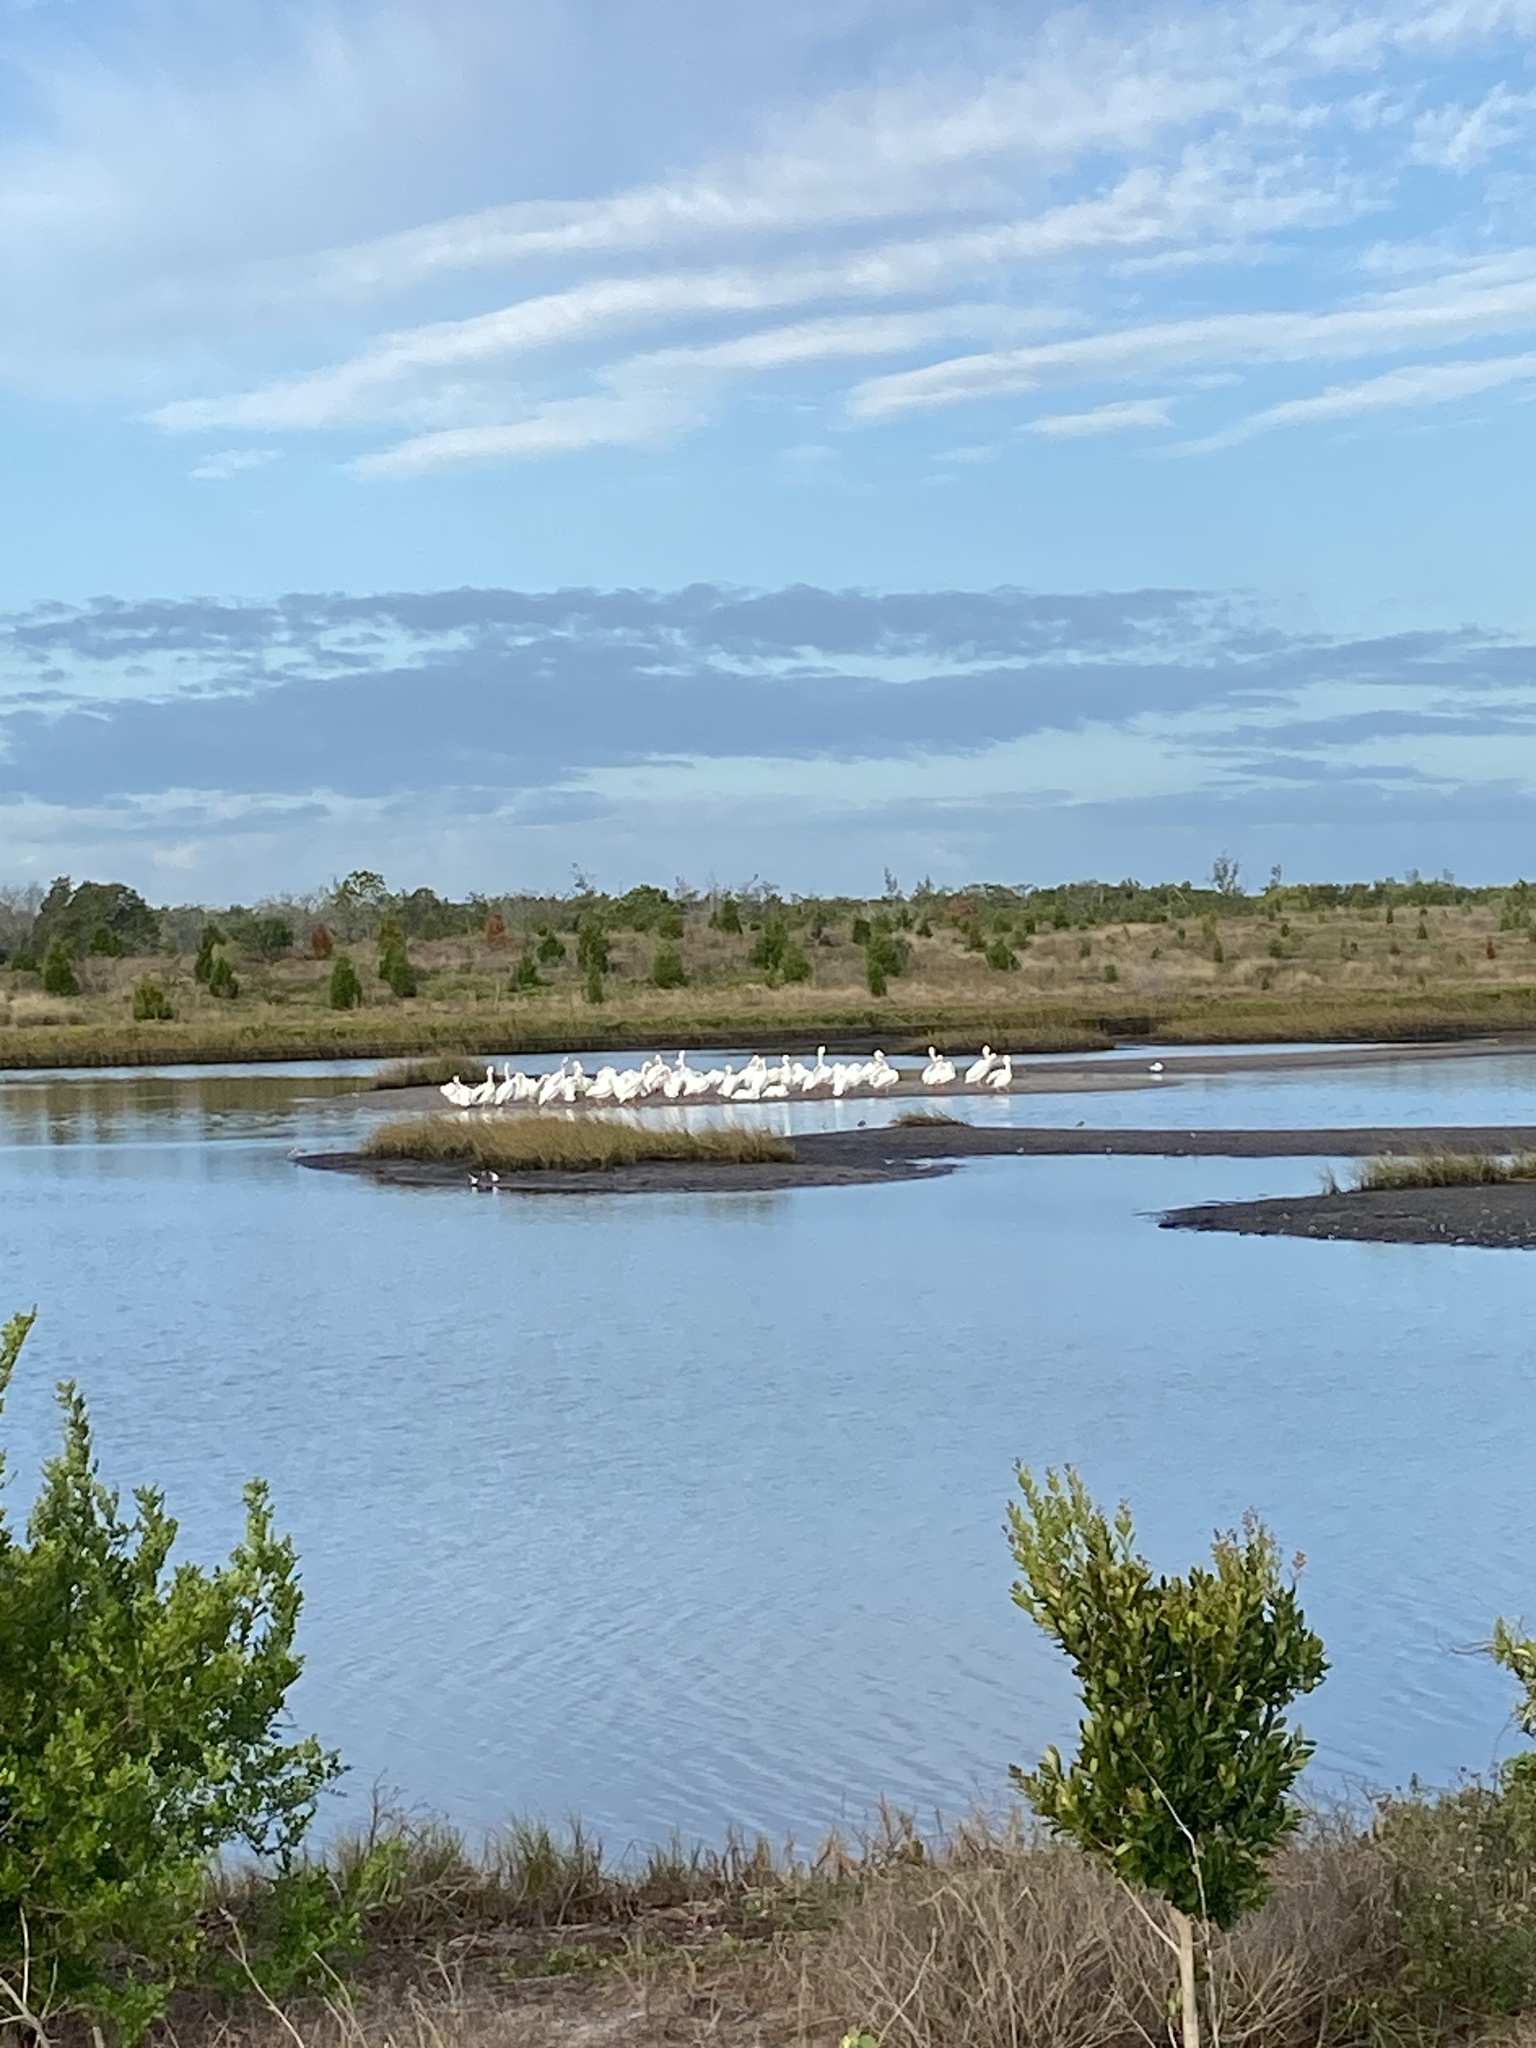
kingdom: Animalia
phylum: Chordata
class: Aves
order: Pelecaniformes
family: Pelecanidae
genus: Pelecanus
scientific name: Pelecanus erythrorhynchos
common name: American white pelican
